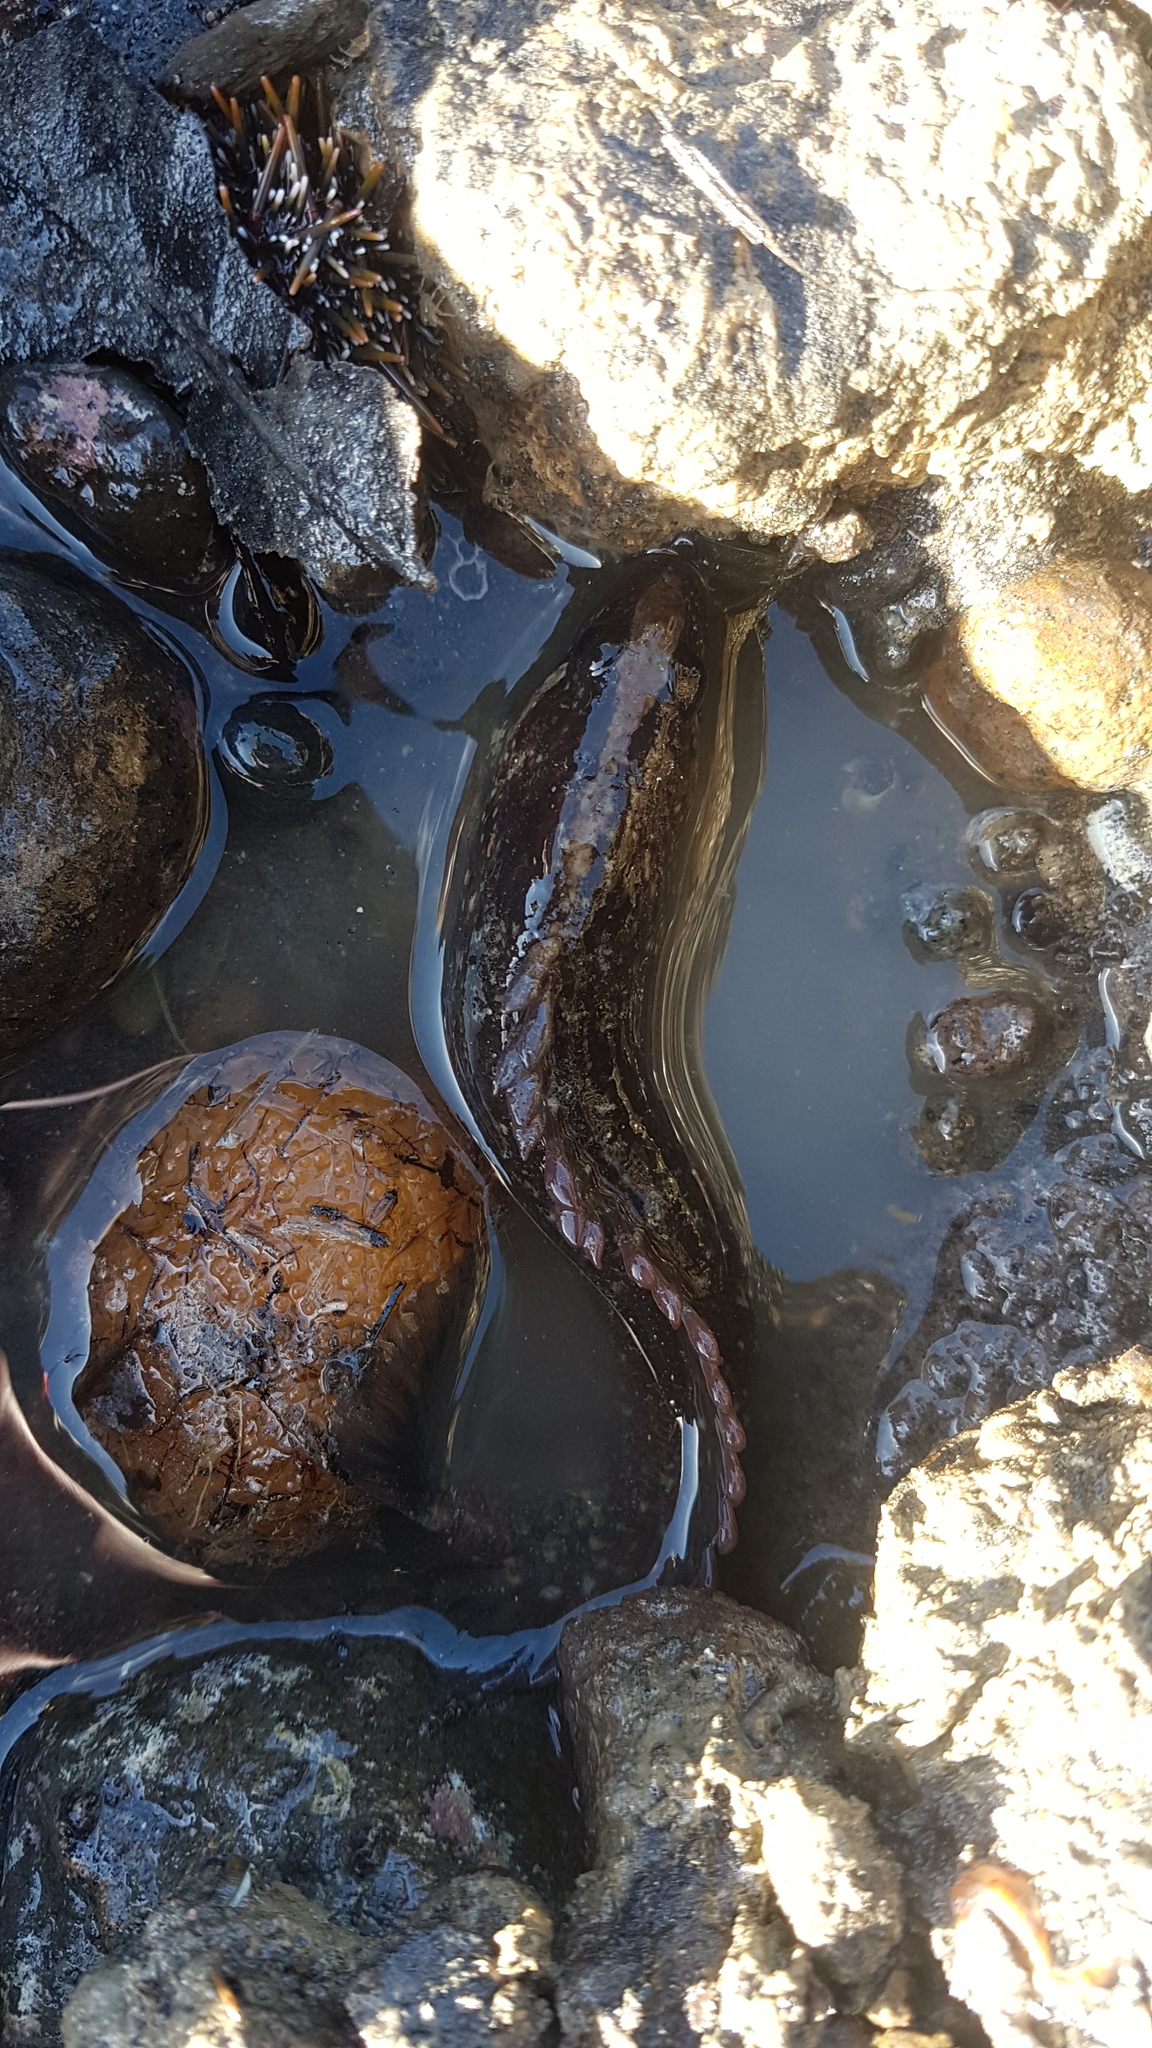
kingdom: Animalia
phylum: Chordata
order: Perciformes
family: Plesiopidae
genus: Acanthoclinus
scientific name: Acanthoclinus fuscus
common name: Olive rockfish
